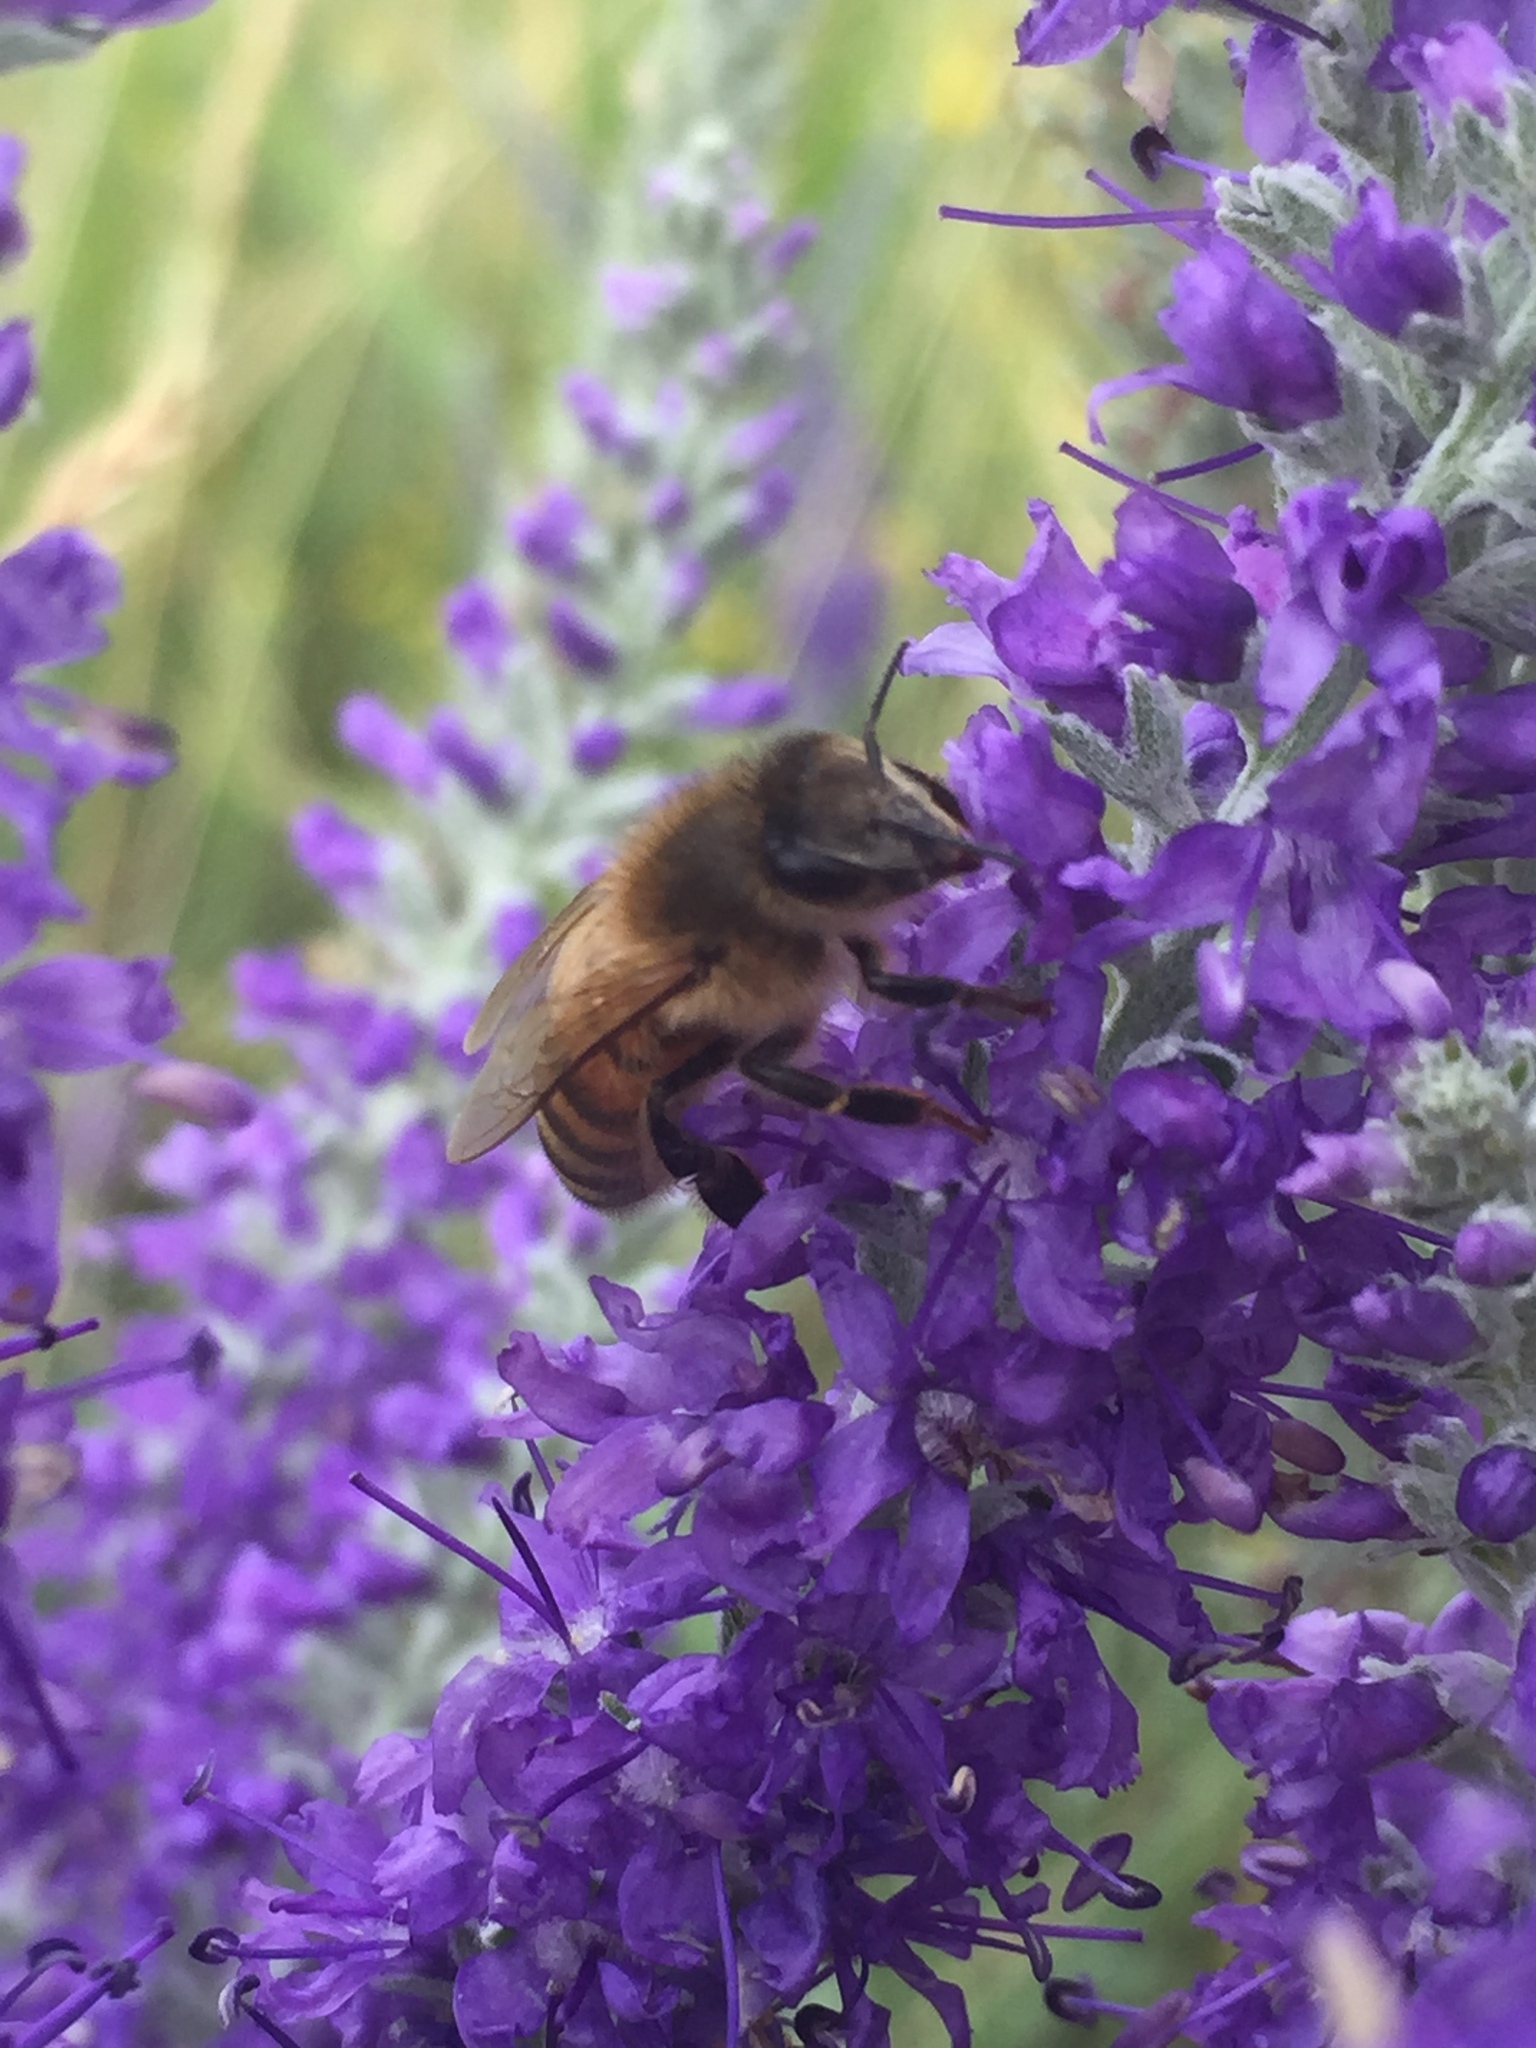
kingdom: Animalia
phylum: Arthropoda
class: Insecta
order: Hymenoptera
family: Apidae
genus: Apis
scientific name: Apis mellifera
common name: Honey bee
